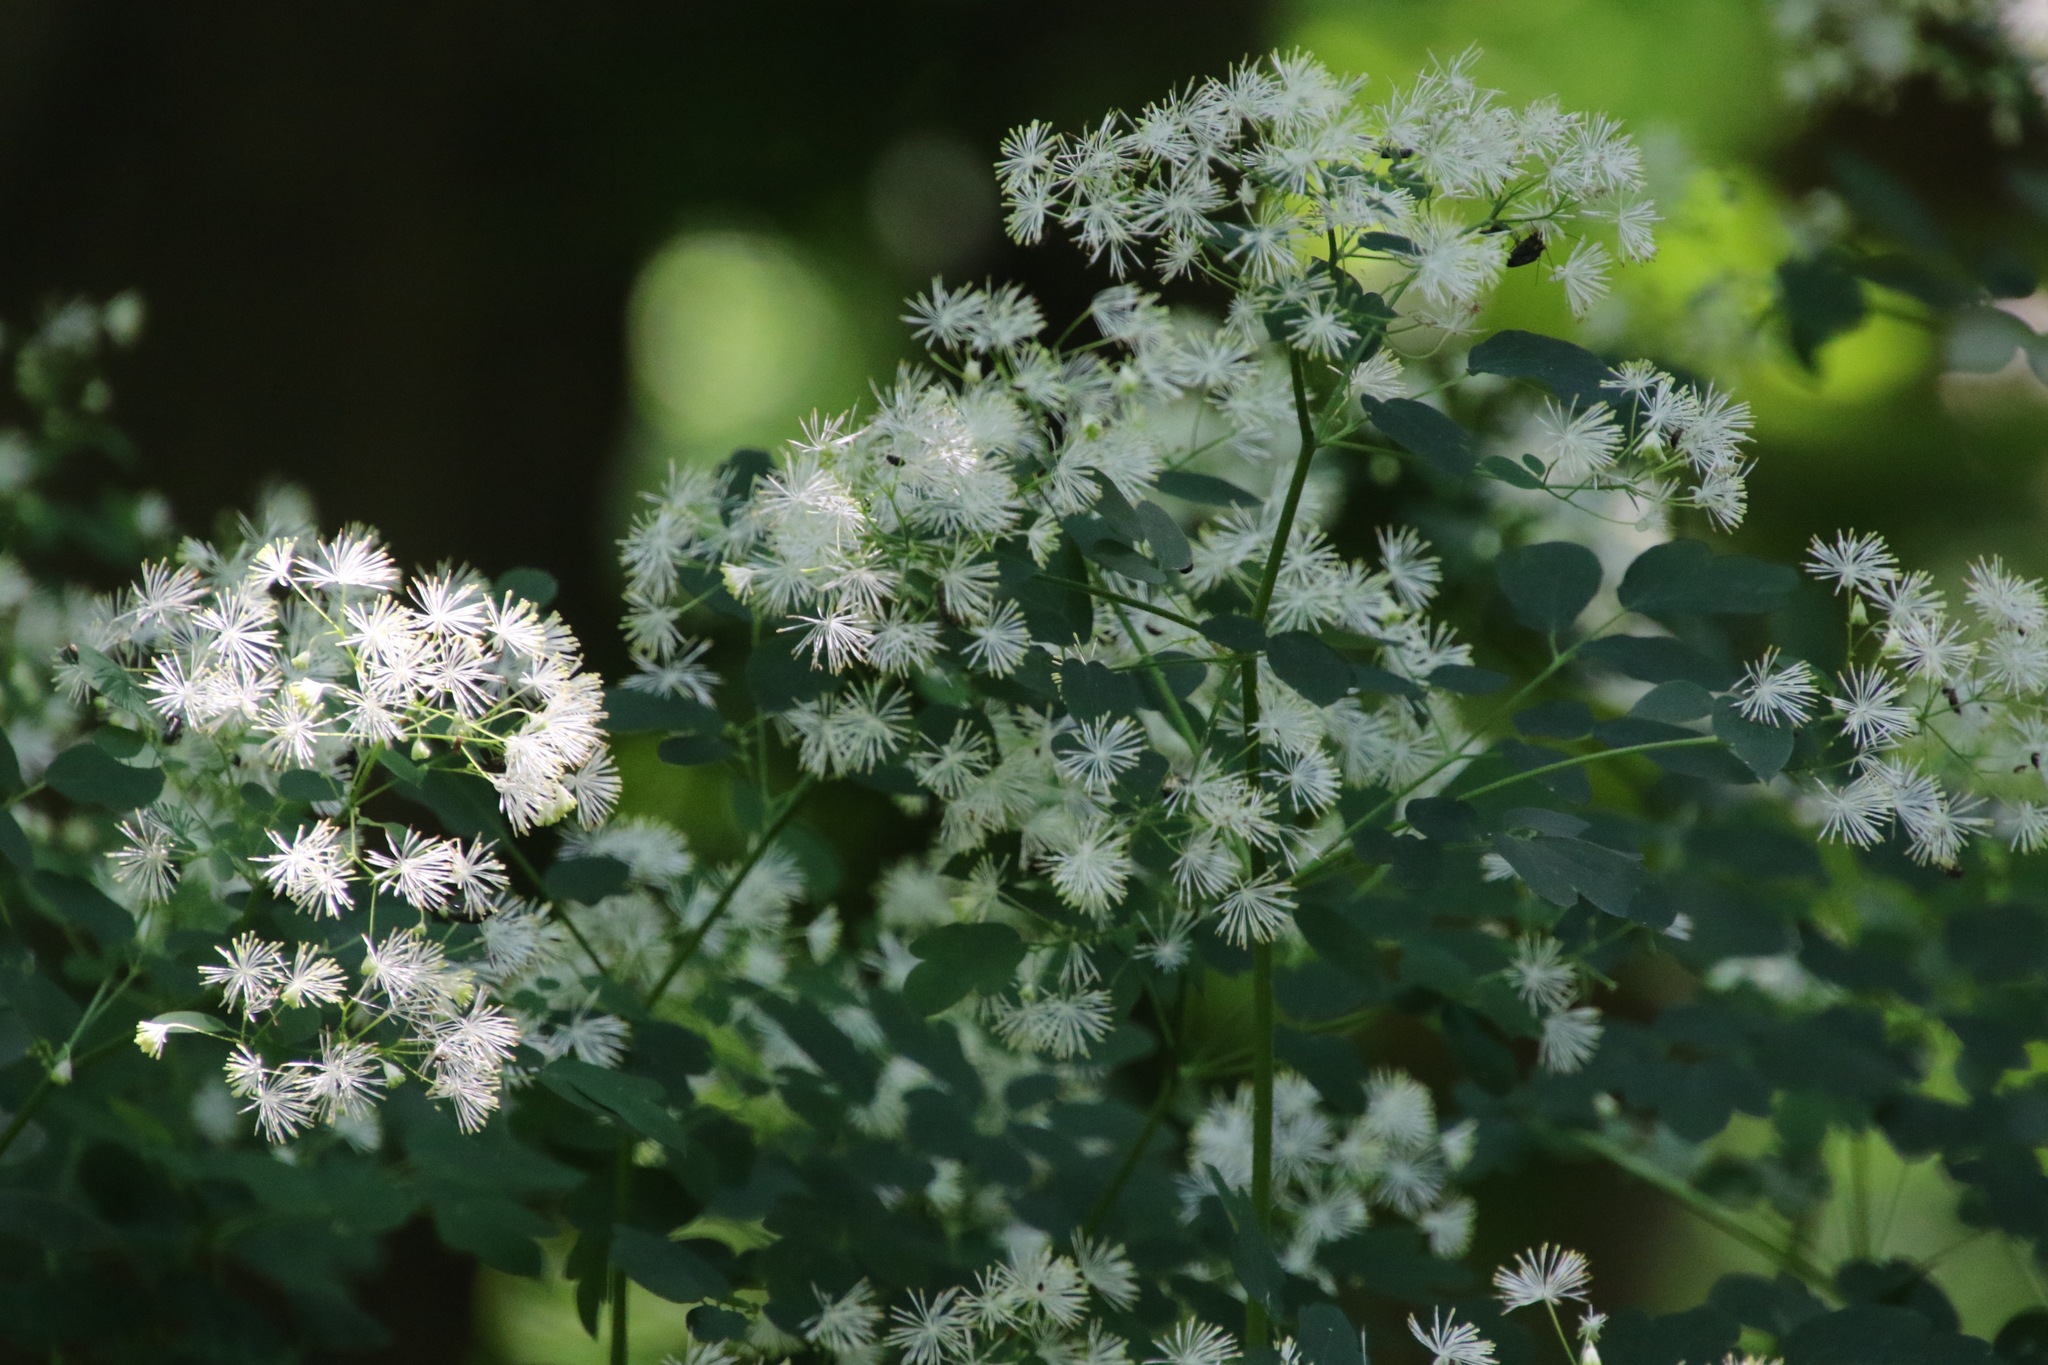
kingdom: Plantae
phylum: Tracheophyta
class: Magnoliopsida
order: Ranunculales
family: Ranunculaceae
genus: Thalictrum
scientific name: Thalictrum pubescens
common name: King-of-the-meadow
